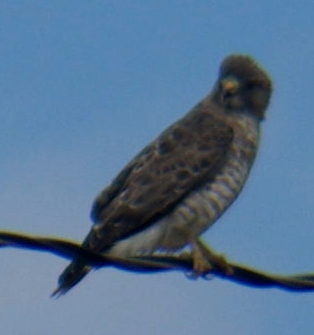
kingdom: Animalia
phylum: Chordata
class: Aves
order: Accipitriformes
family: Accipitridae
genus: Buteo
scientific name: Buteo platypterus
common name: Broad-winged hawk
